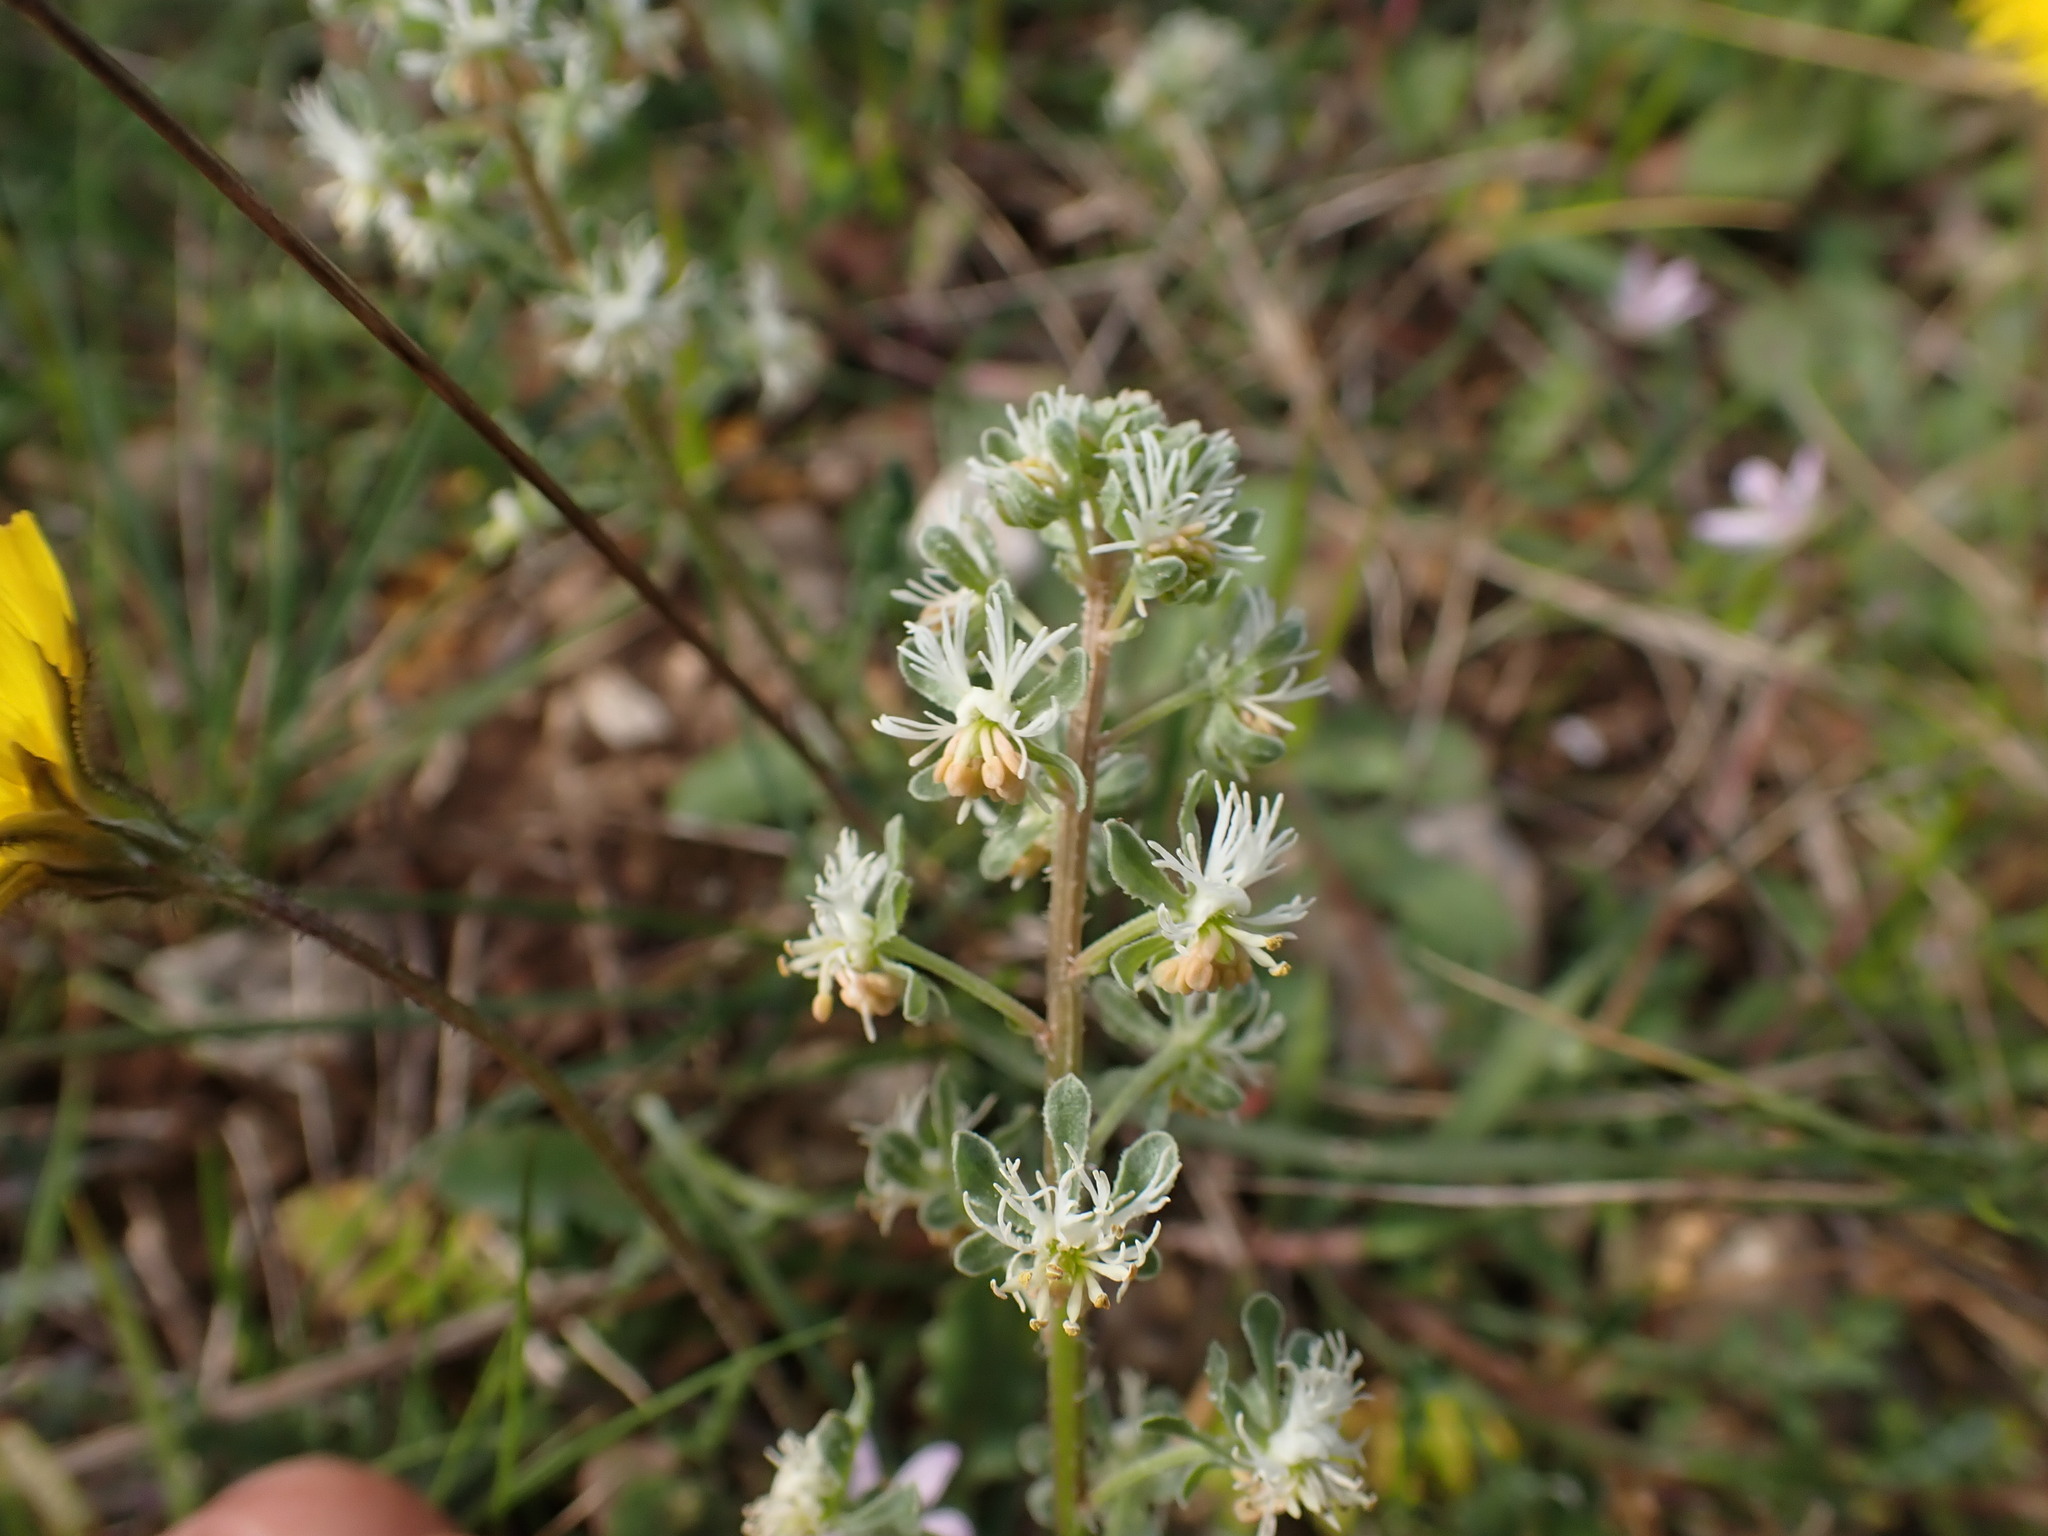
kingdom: Plantae
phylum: Tracheophyta
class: Magnoliopsida
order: Brassicales
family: Resedaceae
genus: Reseda
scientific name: Reseda phyteuma
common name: Corn mignonette
